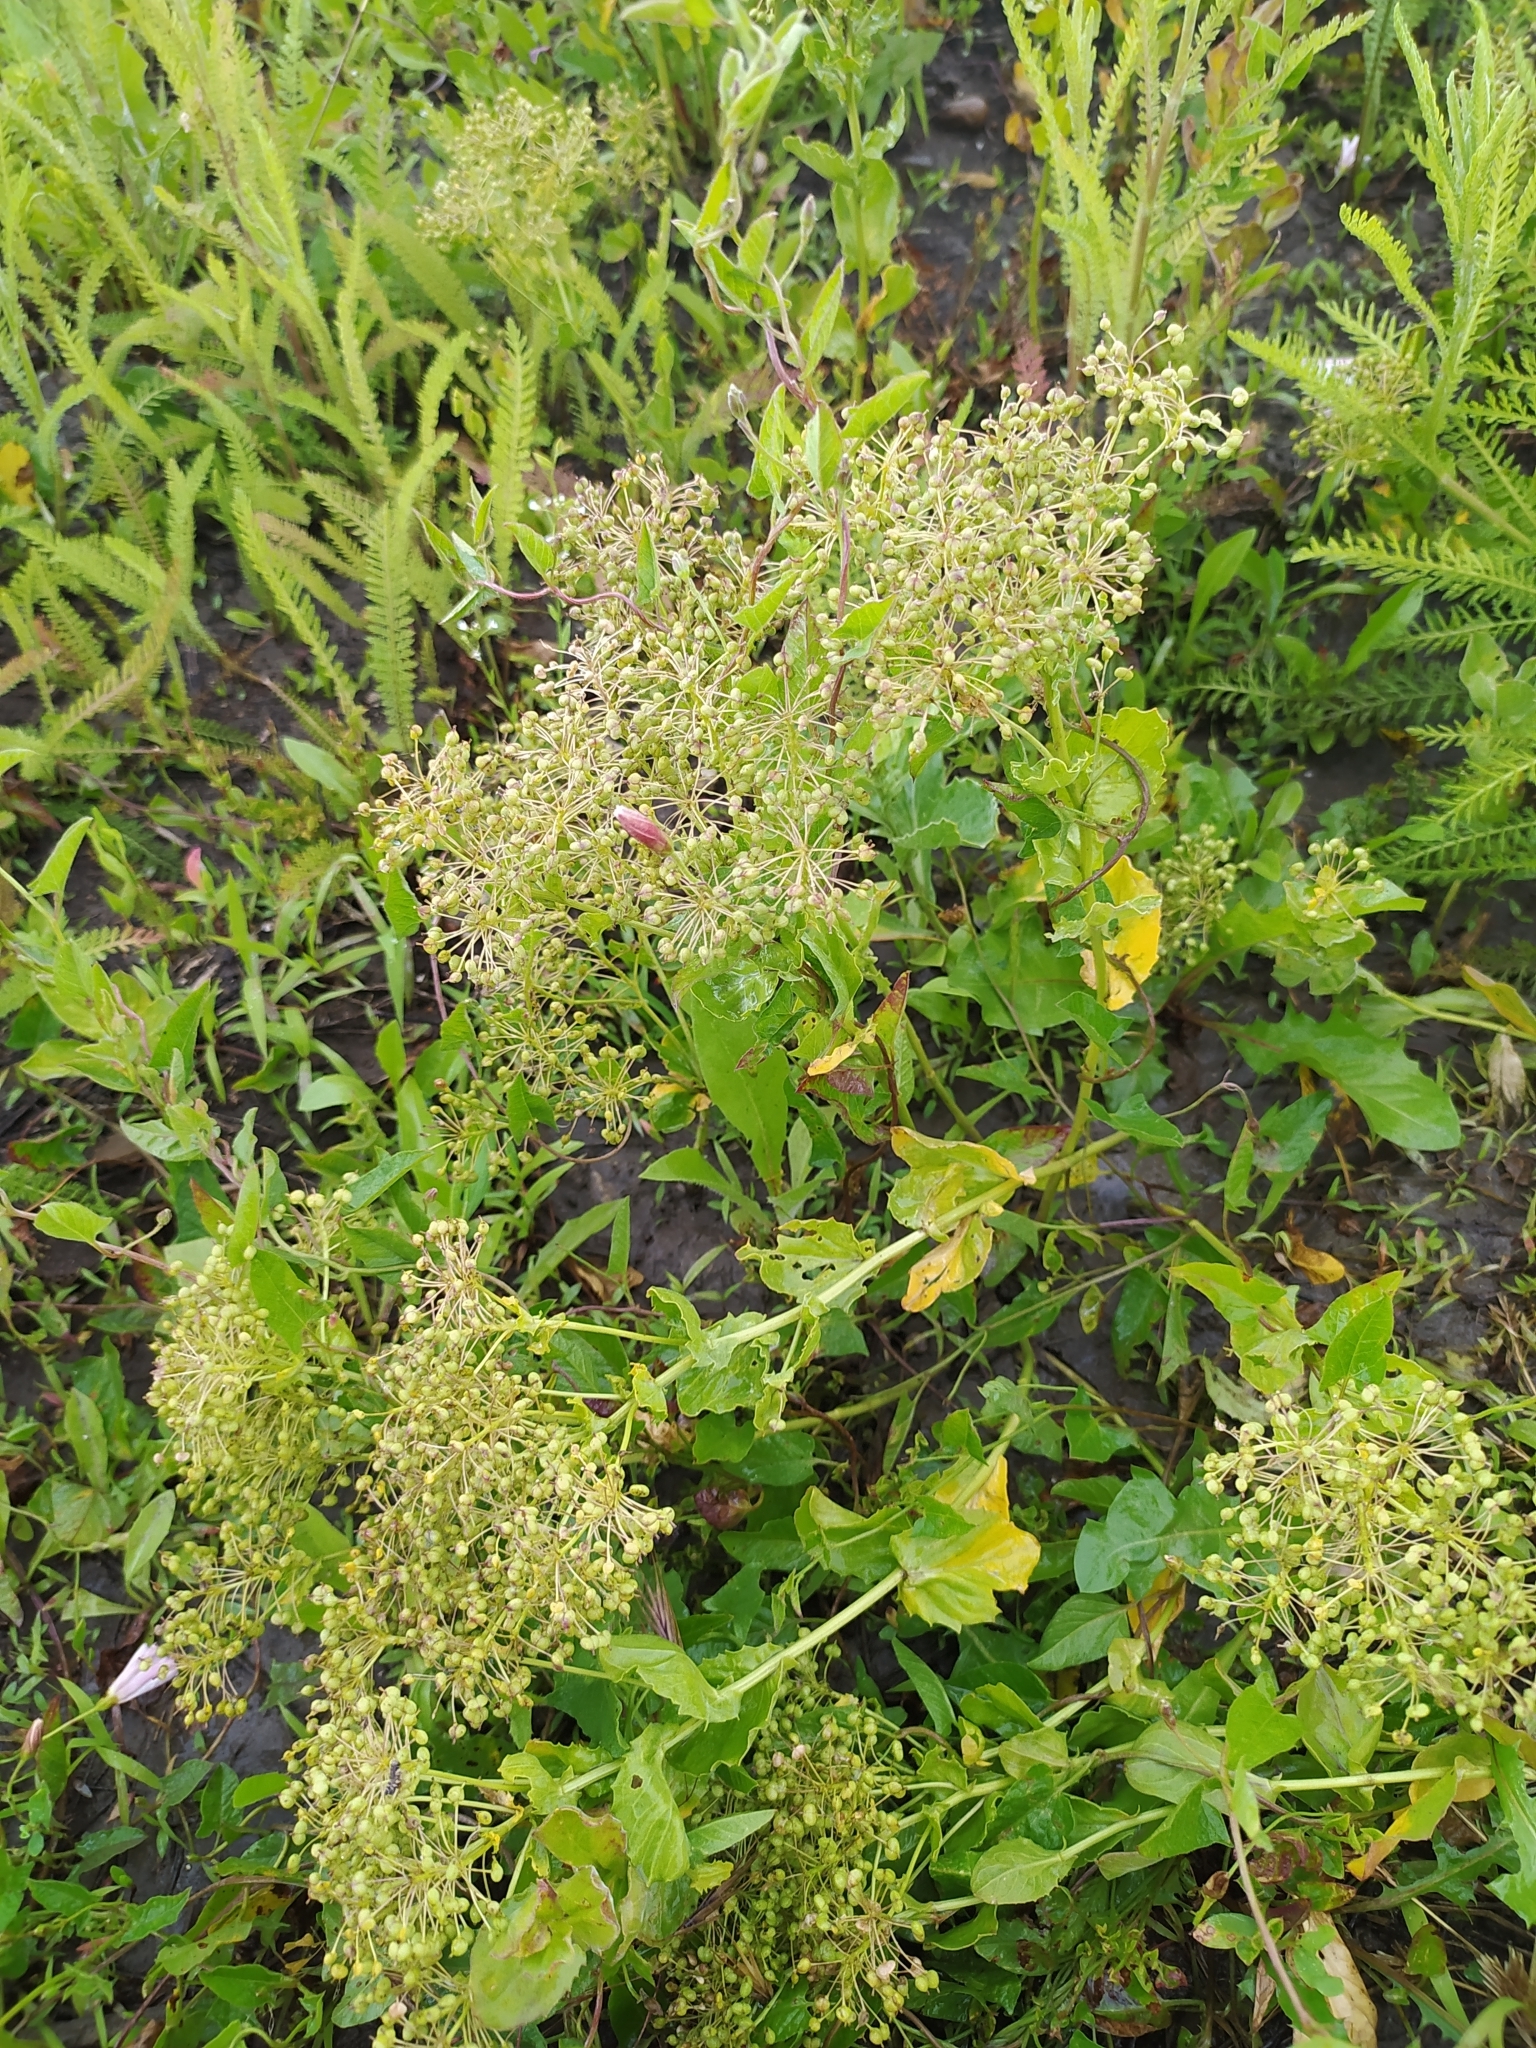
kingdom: Plantae
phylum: Tracheophyta
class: Magnoliopsida
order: Brassicales
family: Brassicaceae
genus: Lepidium
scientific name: Lepidium draba
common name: Hoary cress
